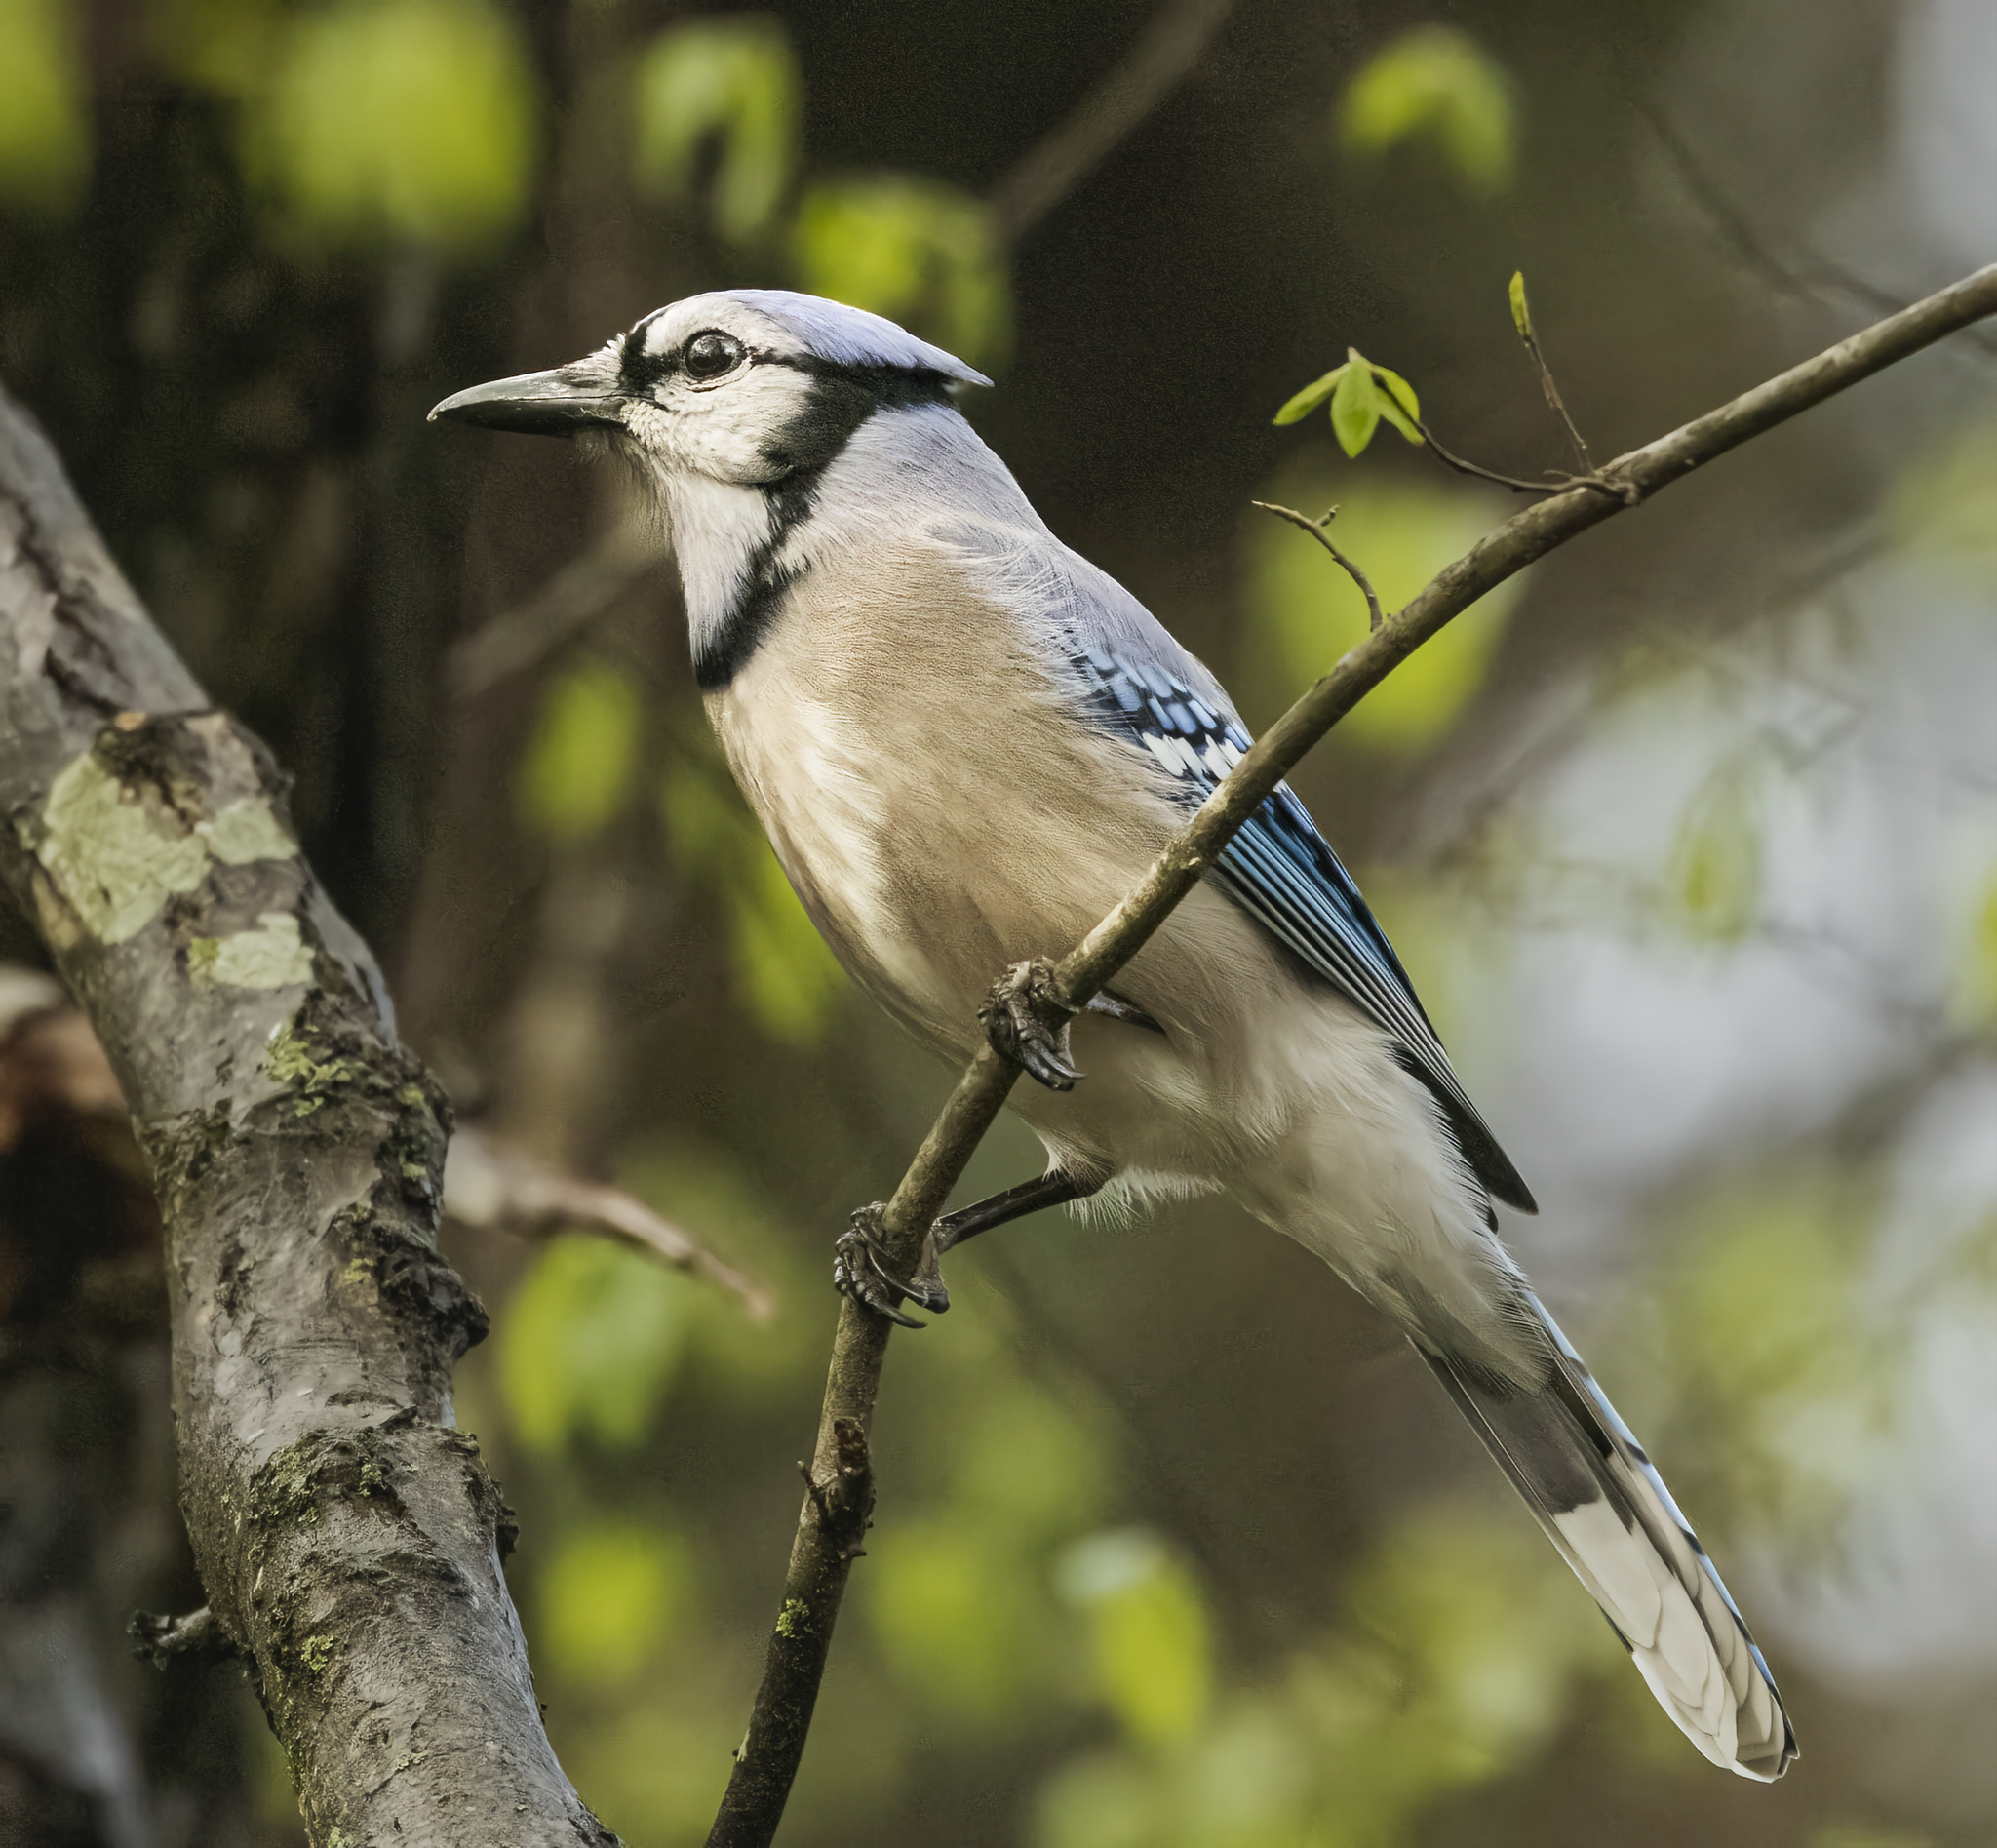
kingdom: Animalia
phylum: Chordata
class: Aves
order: Passeriformes
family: Corvidae
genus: Cyanocitta
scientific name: Cyanocitta cristata
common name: Blue jay
